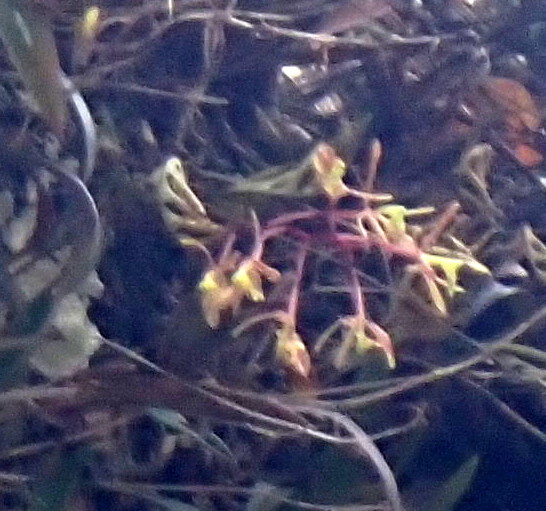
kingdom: Plantae
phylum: Tracheophyta
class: Liliopsida
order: Asparagales
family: Orchidaceae
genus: Epidendrum
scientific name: Epidendrum conopseum
